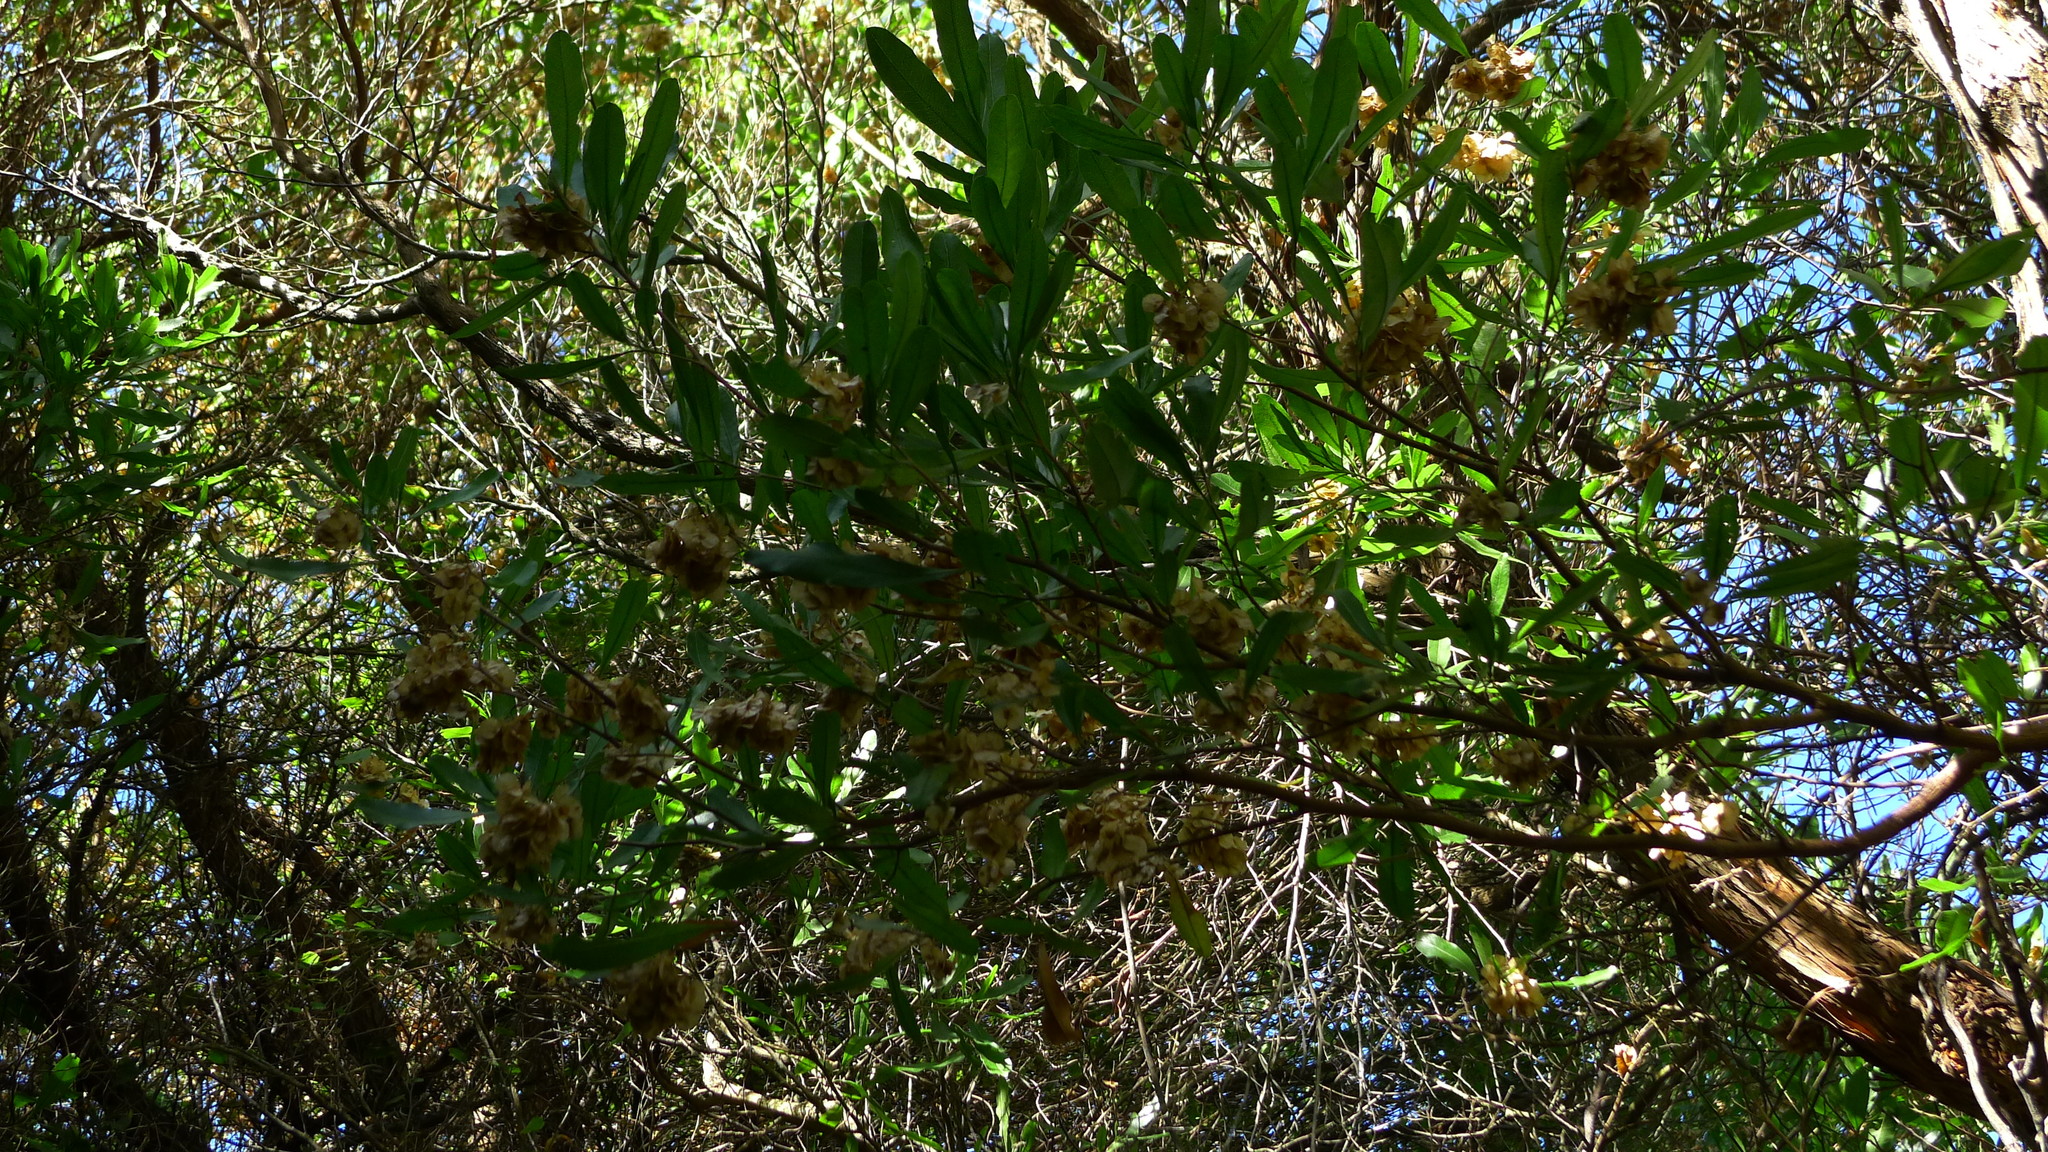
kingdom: Plantae
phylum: Tracheophyta
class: Magnoliopsida
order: Sapindales
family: Sapindaceae
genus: Dodonaea
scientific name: Dodonaea viscosa
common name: Hopbush
